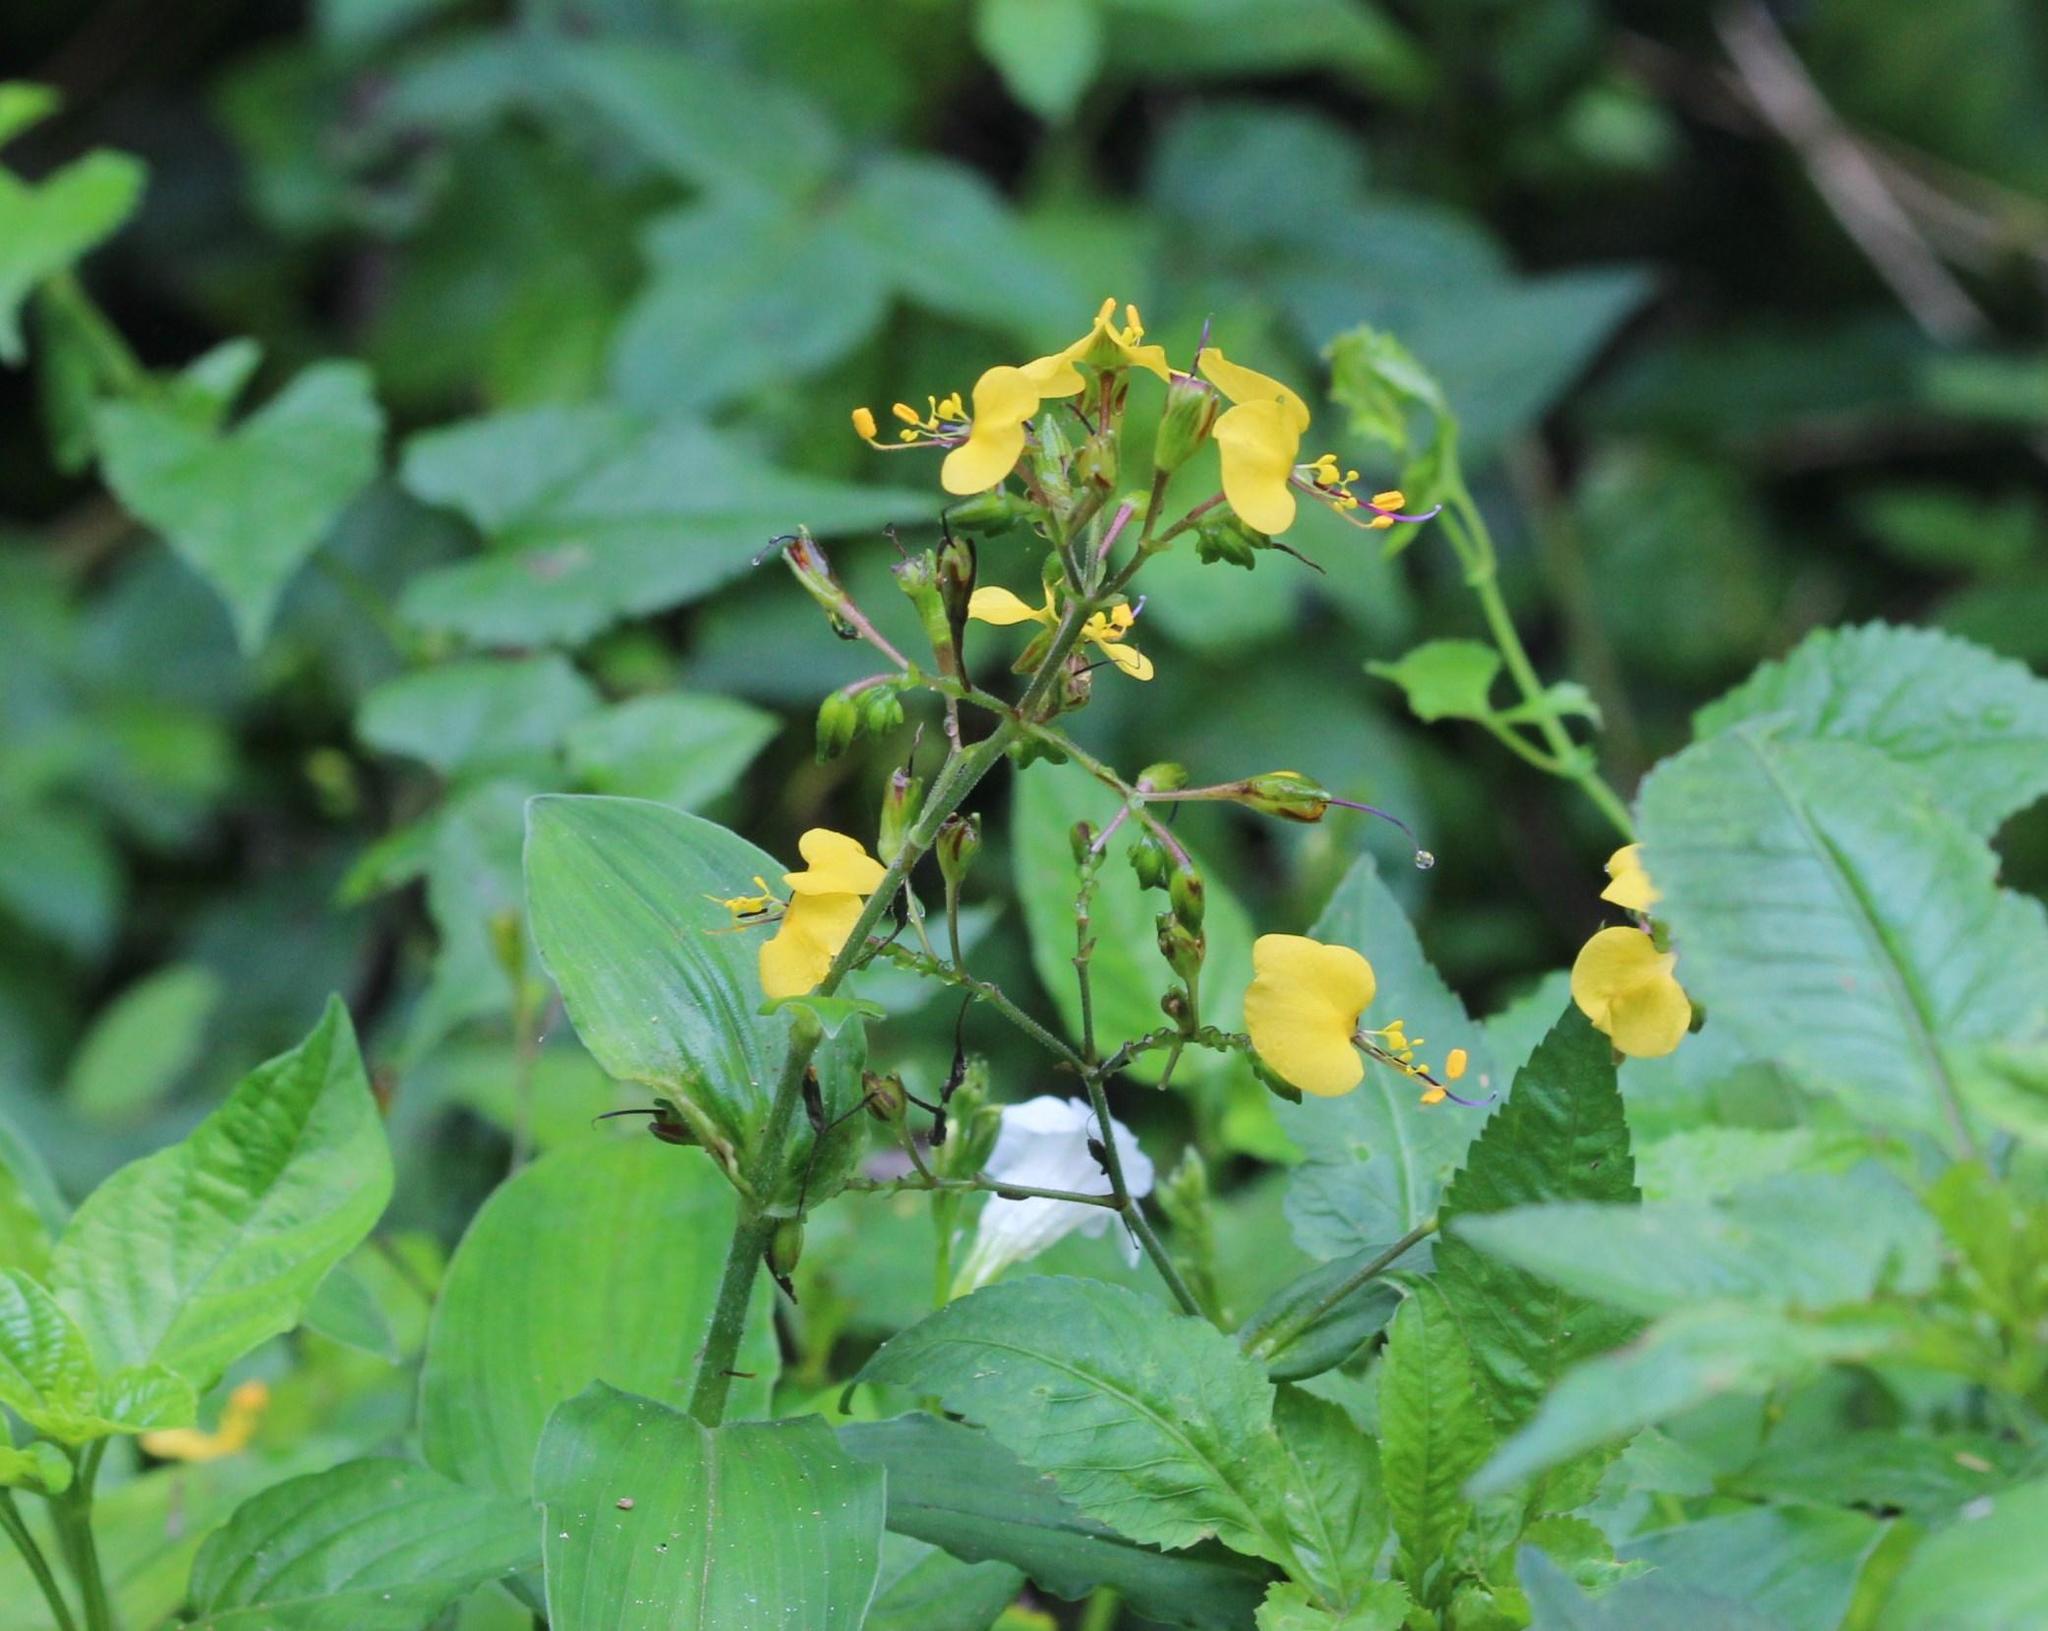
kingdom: Plantae
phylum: Tracheophyta
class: Liliopsida
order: Commelinales
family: Commelinaceae
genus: Aneilema
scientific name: Aneilema aequinoctiale
